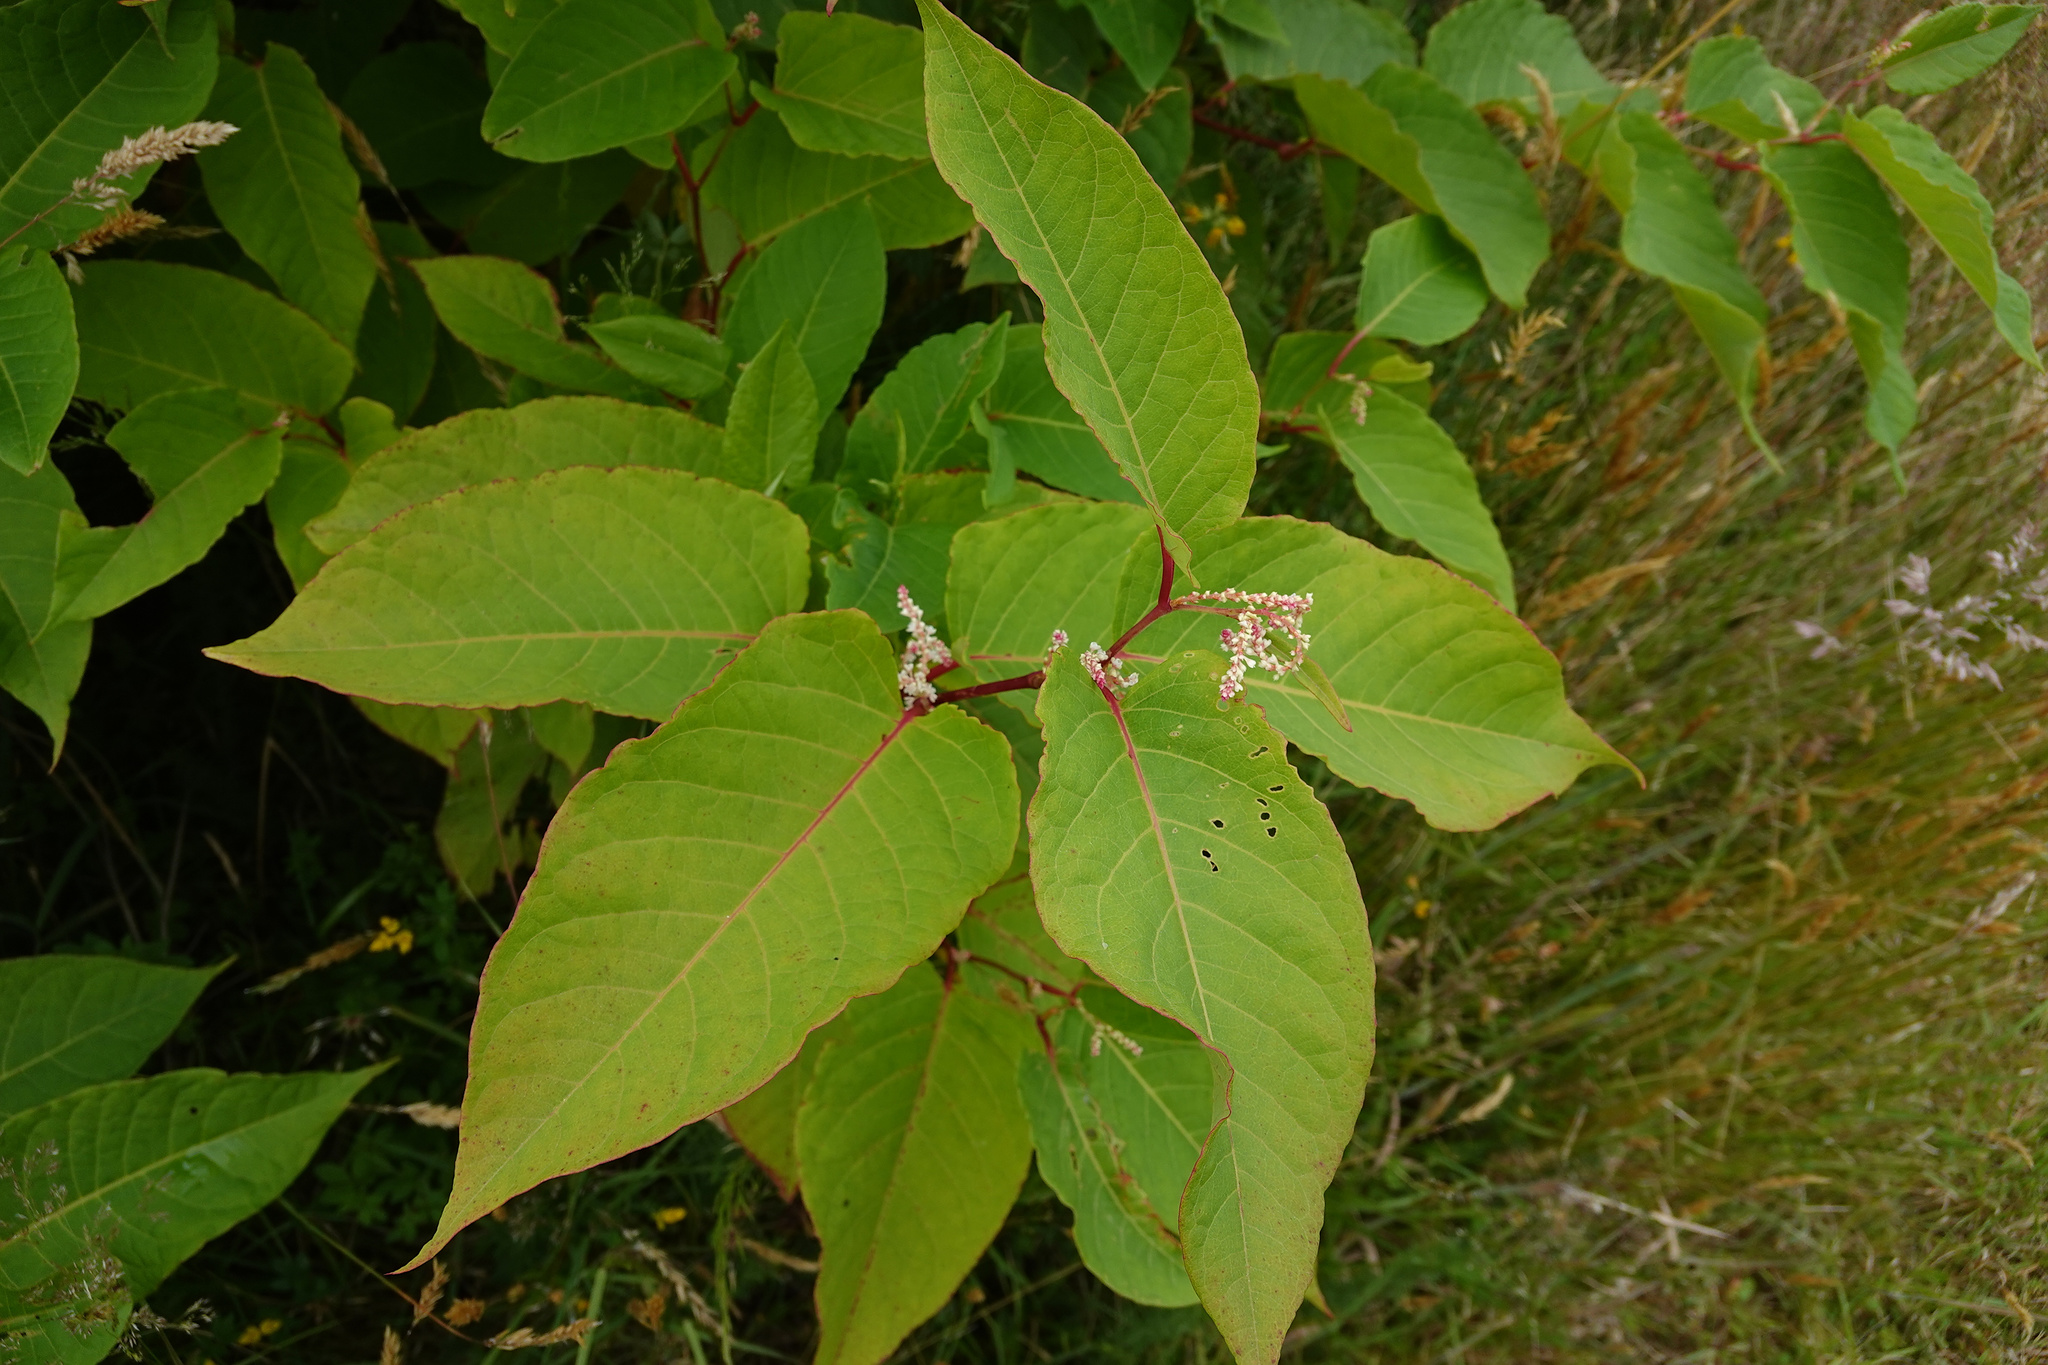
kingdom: Plantae
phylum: Tracheophyta
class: Magnoliopsida
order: Caryophyllales
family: Polygonaceae
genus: Reynoutria
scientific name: Reynoutria japonica
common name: Japanese knotweed
